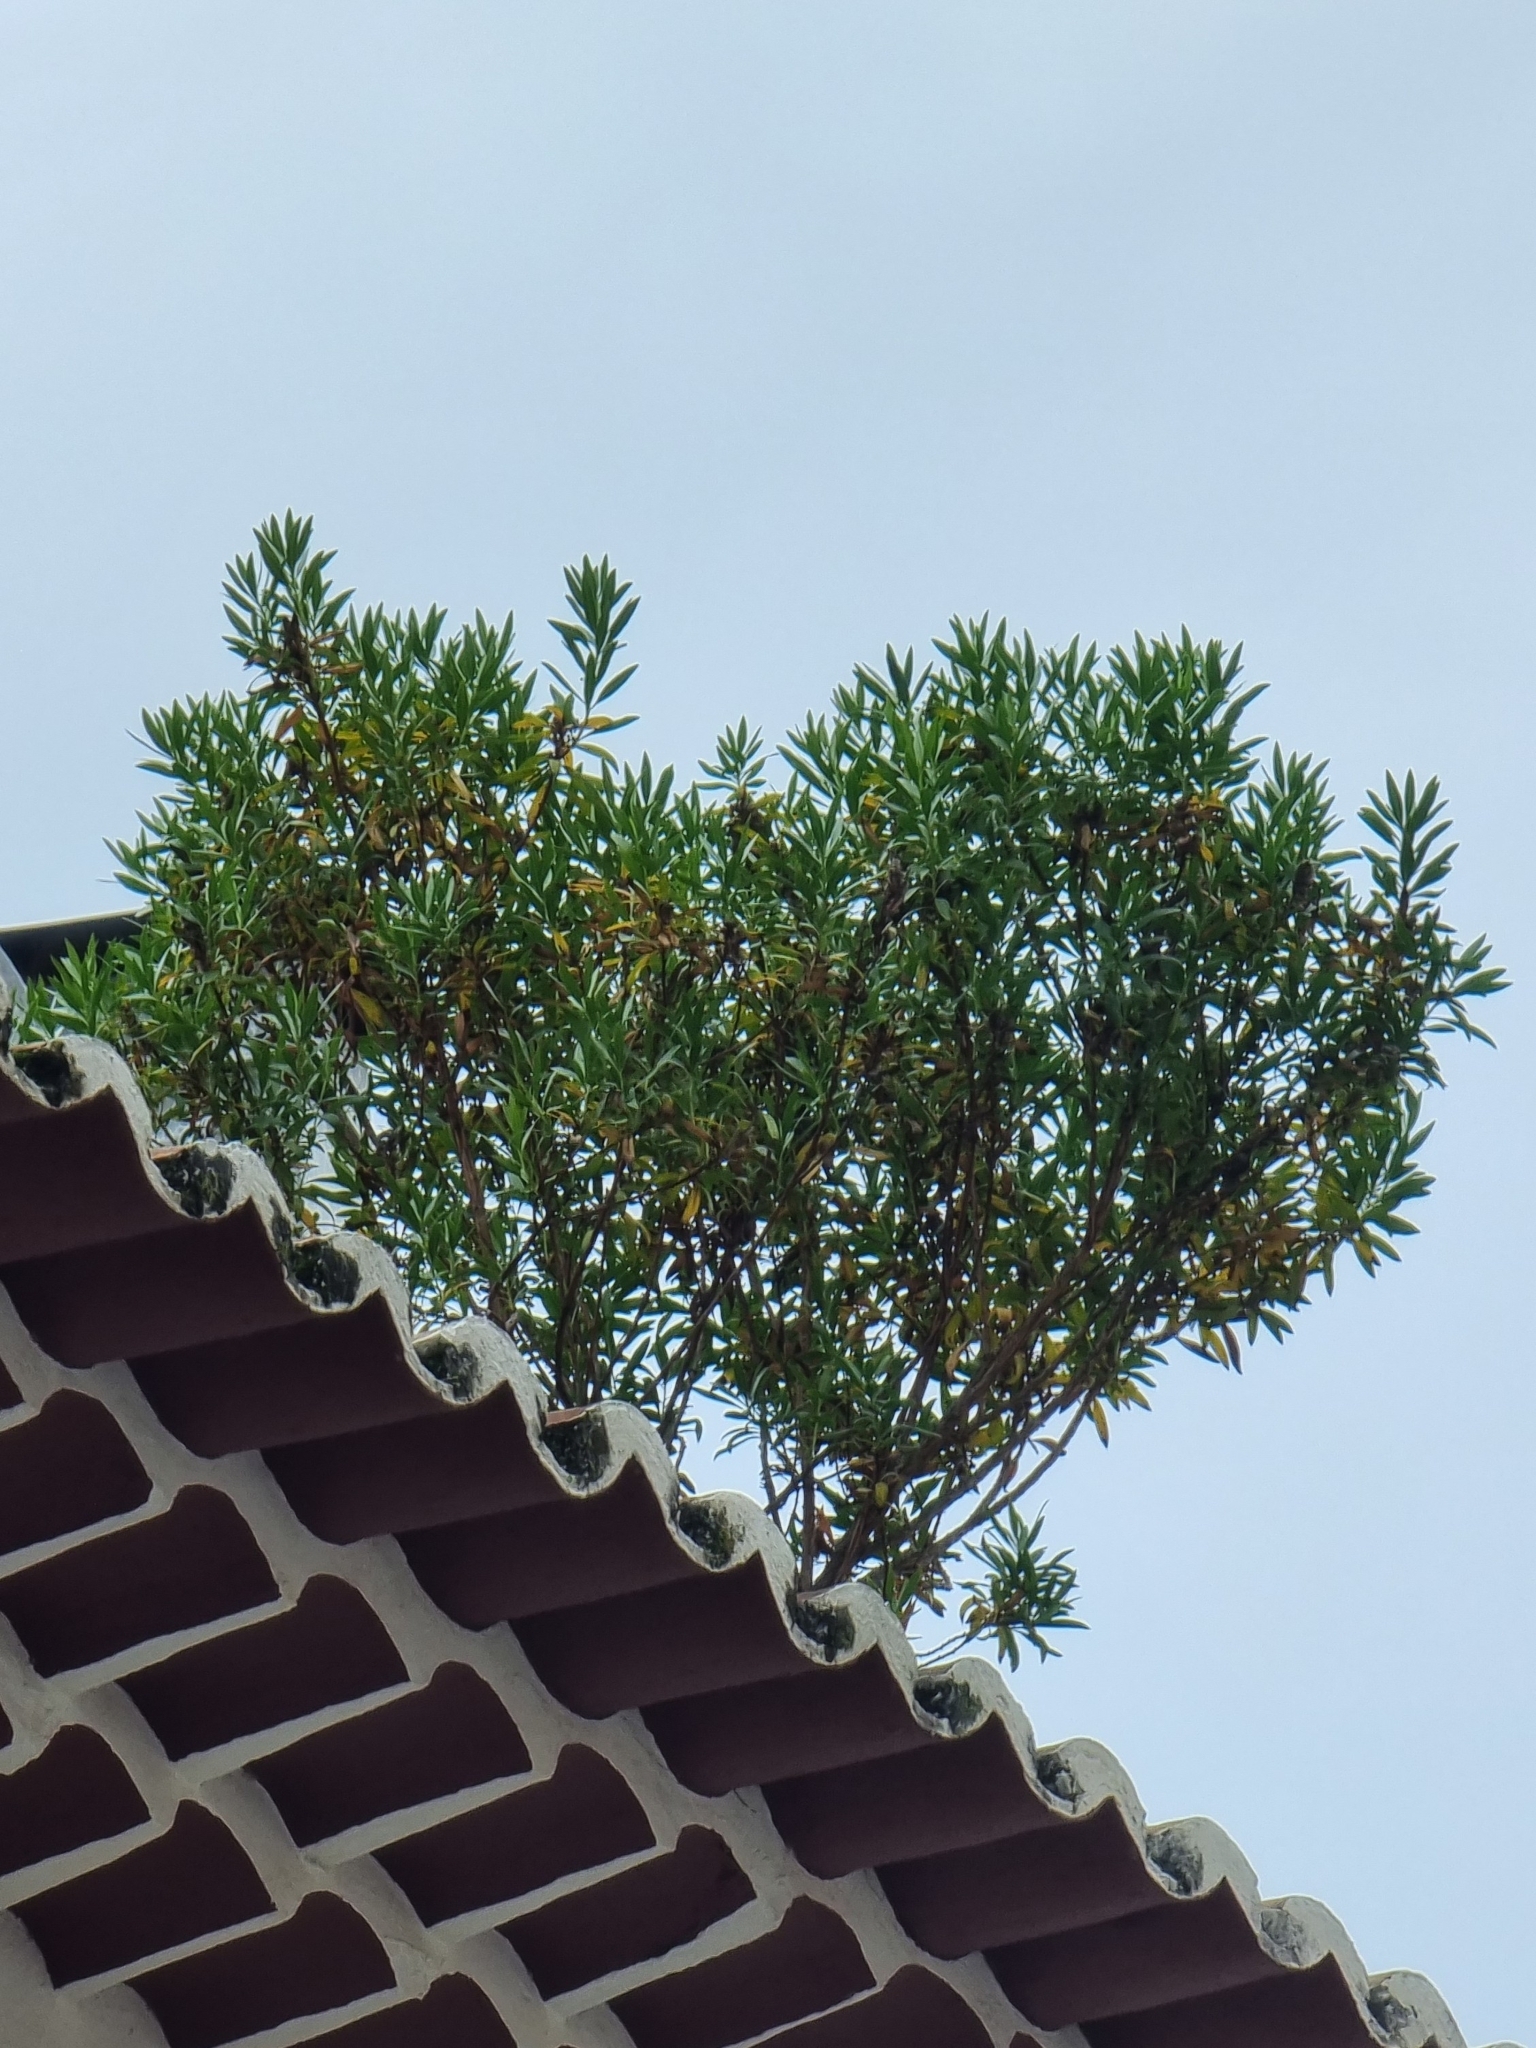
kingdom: Plantae
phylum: Tracheophyta
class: Magnoliopsida
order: Lamiales
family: Plantaginaceae
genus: Globularia
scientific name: Globularia salicina
